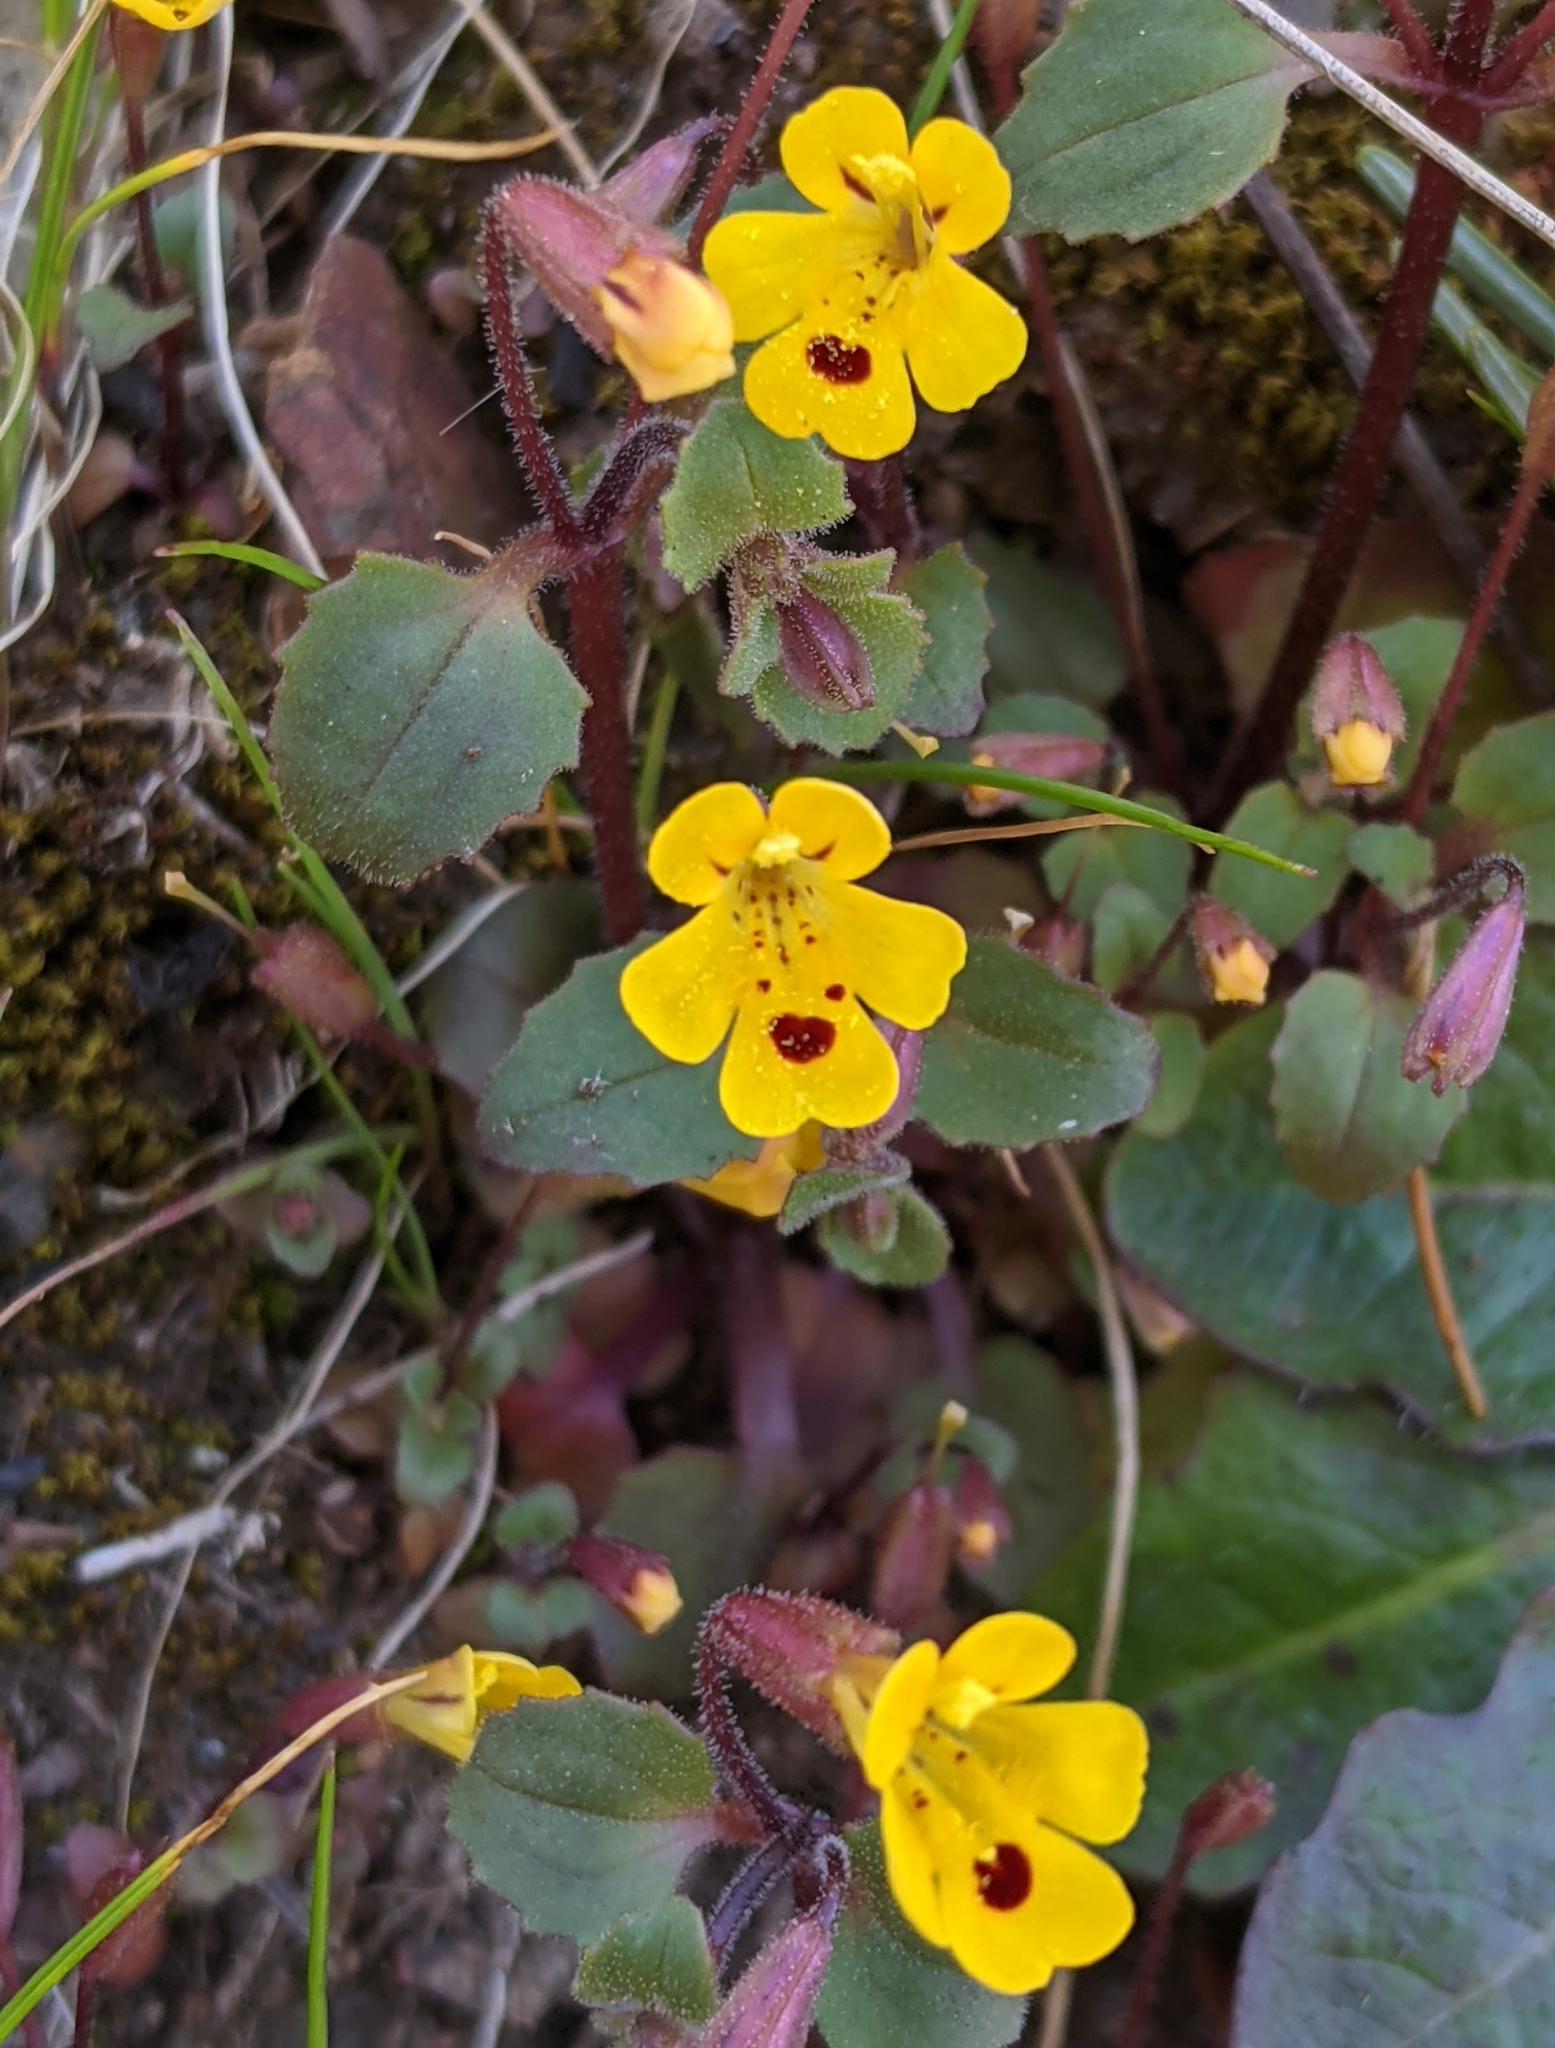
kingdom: Plantae
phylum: Tracheophyta
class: Magnoliopsida
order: Lamiales
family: Phrymaceae
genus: Erythranthe
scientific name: Erythranthe alsinoides
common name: Chickweed monkeyflower
